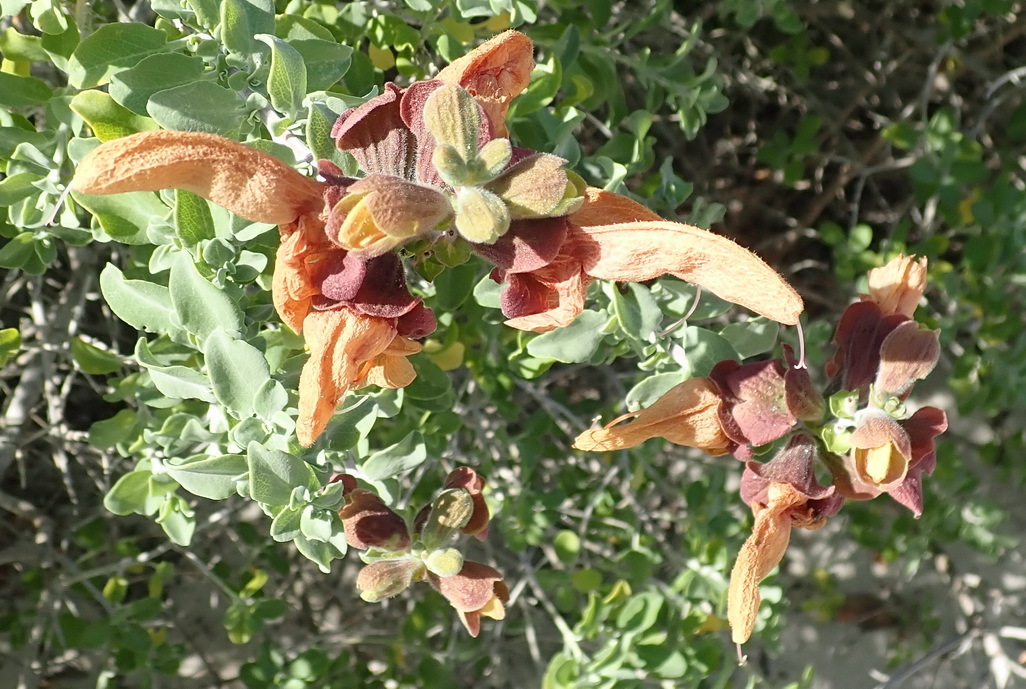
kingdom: Plantae
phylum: Tracheophyta
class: Magnoliopsida
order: Lamiales
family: Lamiaceae
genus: Salvia
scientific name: Salvia aurea
